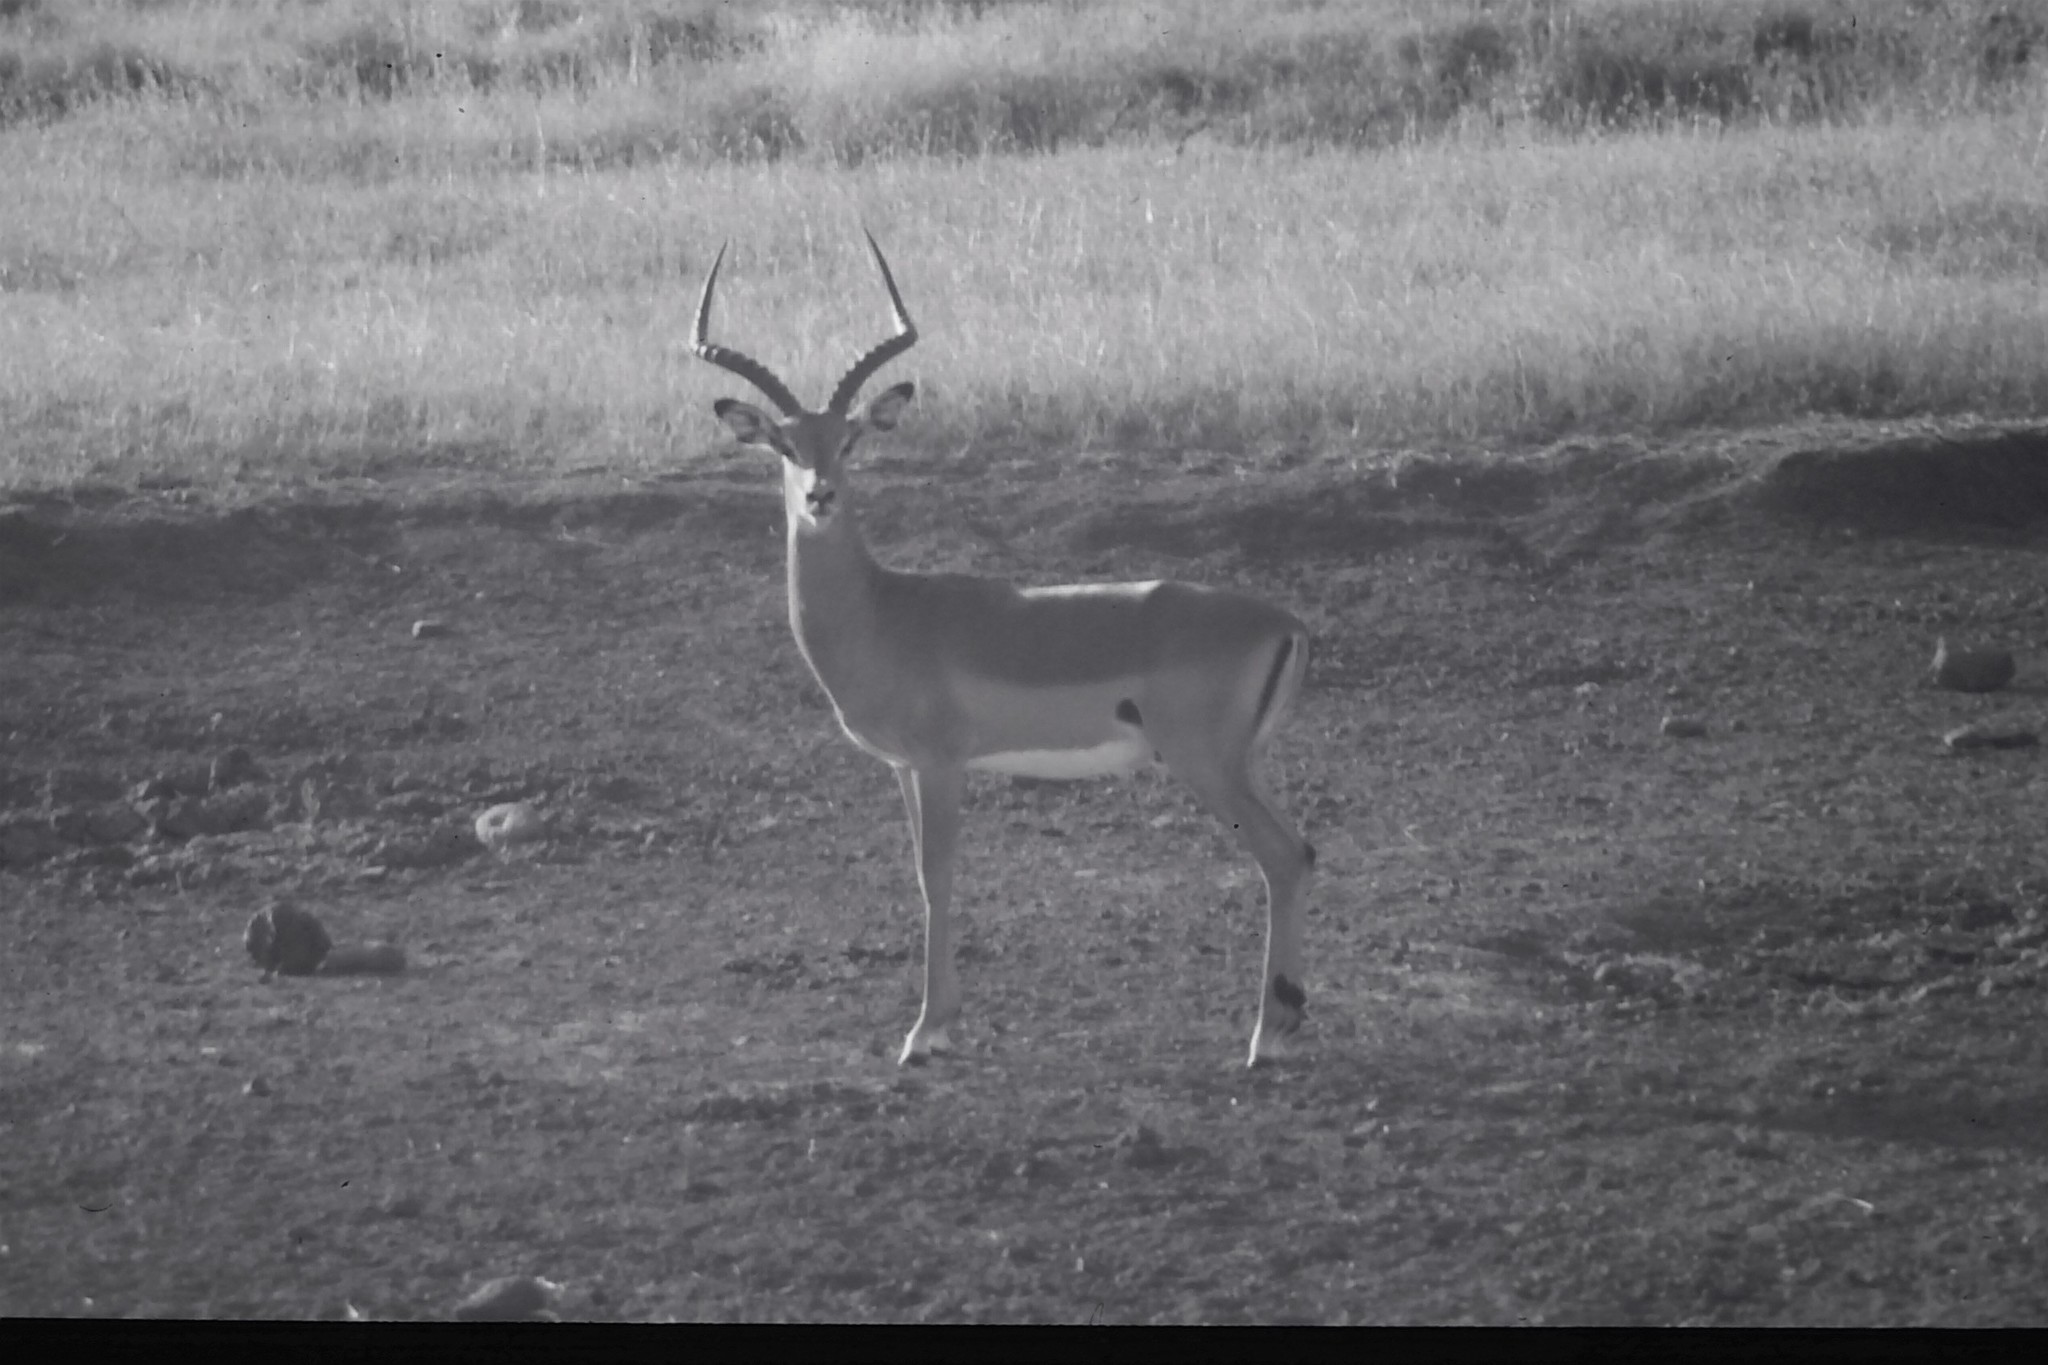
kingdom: Animalia
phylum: Chordata
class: Mammalia
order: Artiodactyla
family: Bovidae
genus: Aepyceros
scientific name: Aepyceros melampus
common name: Impala
